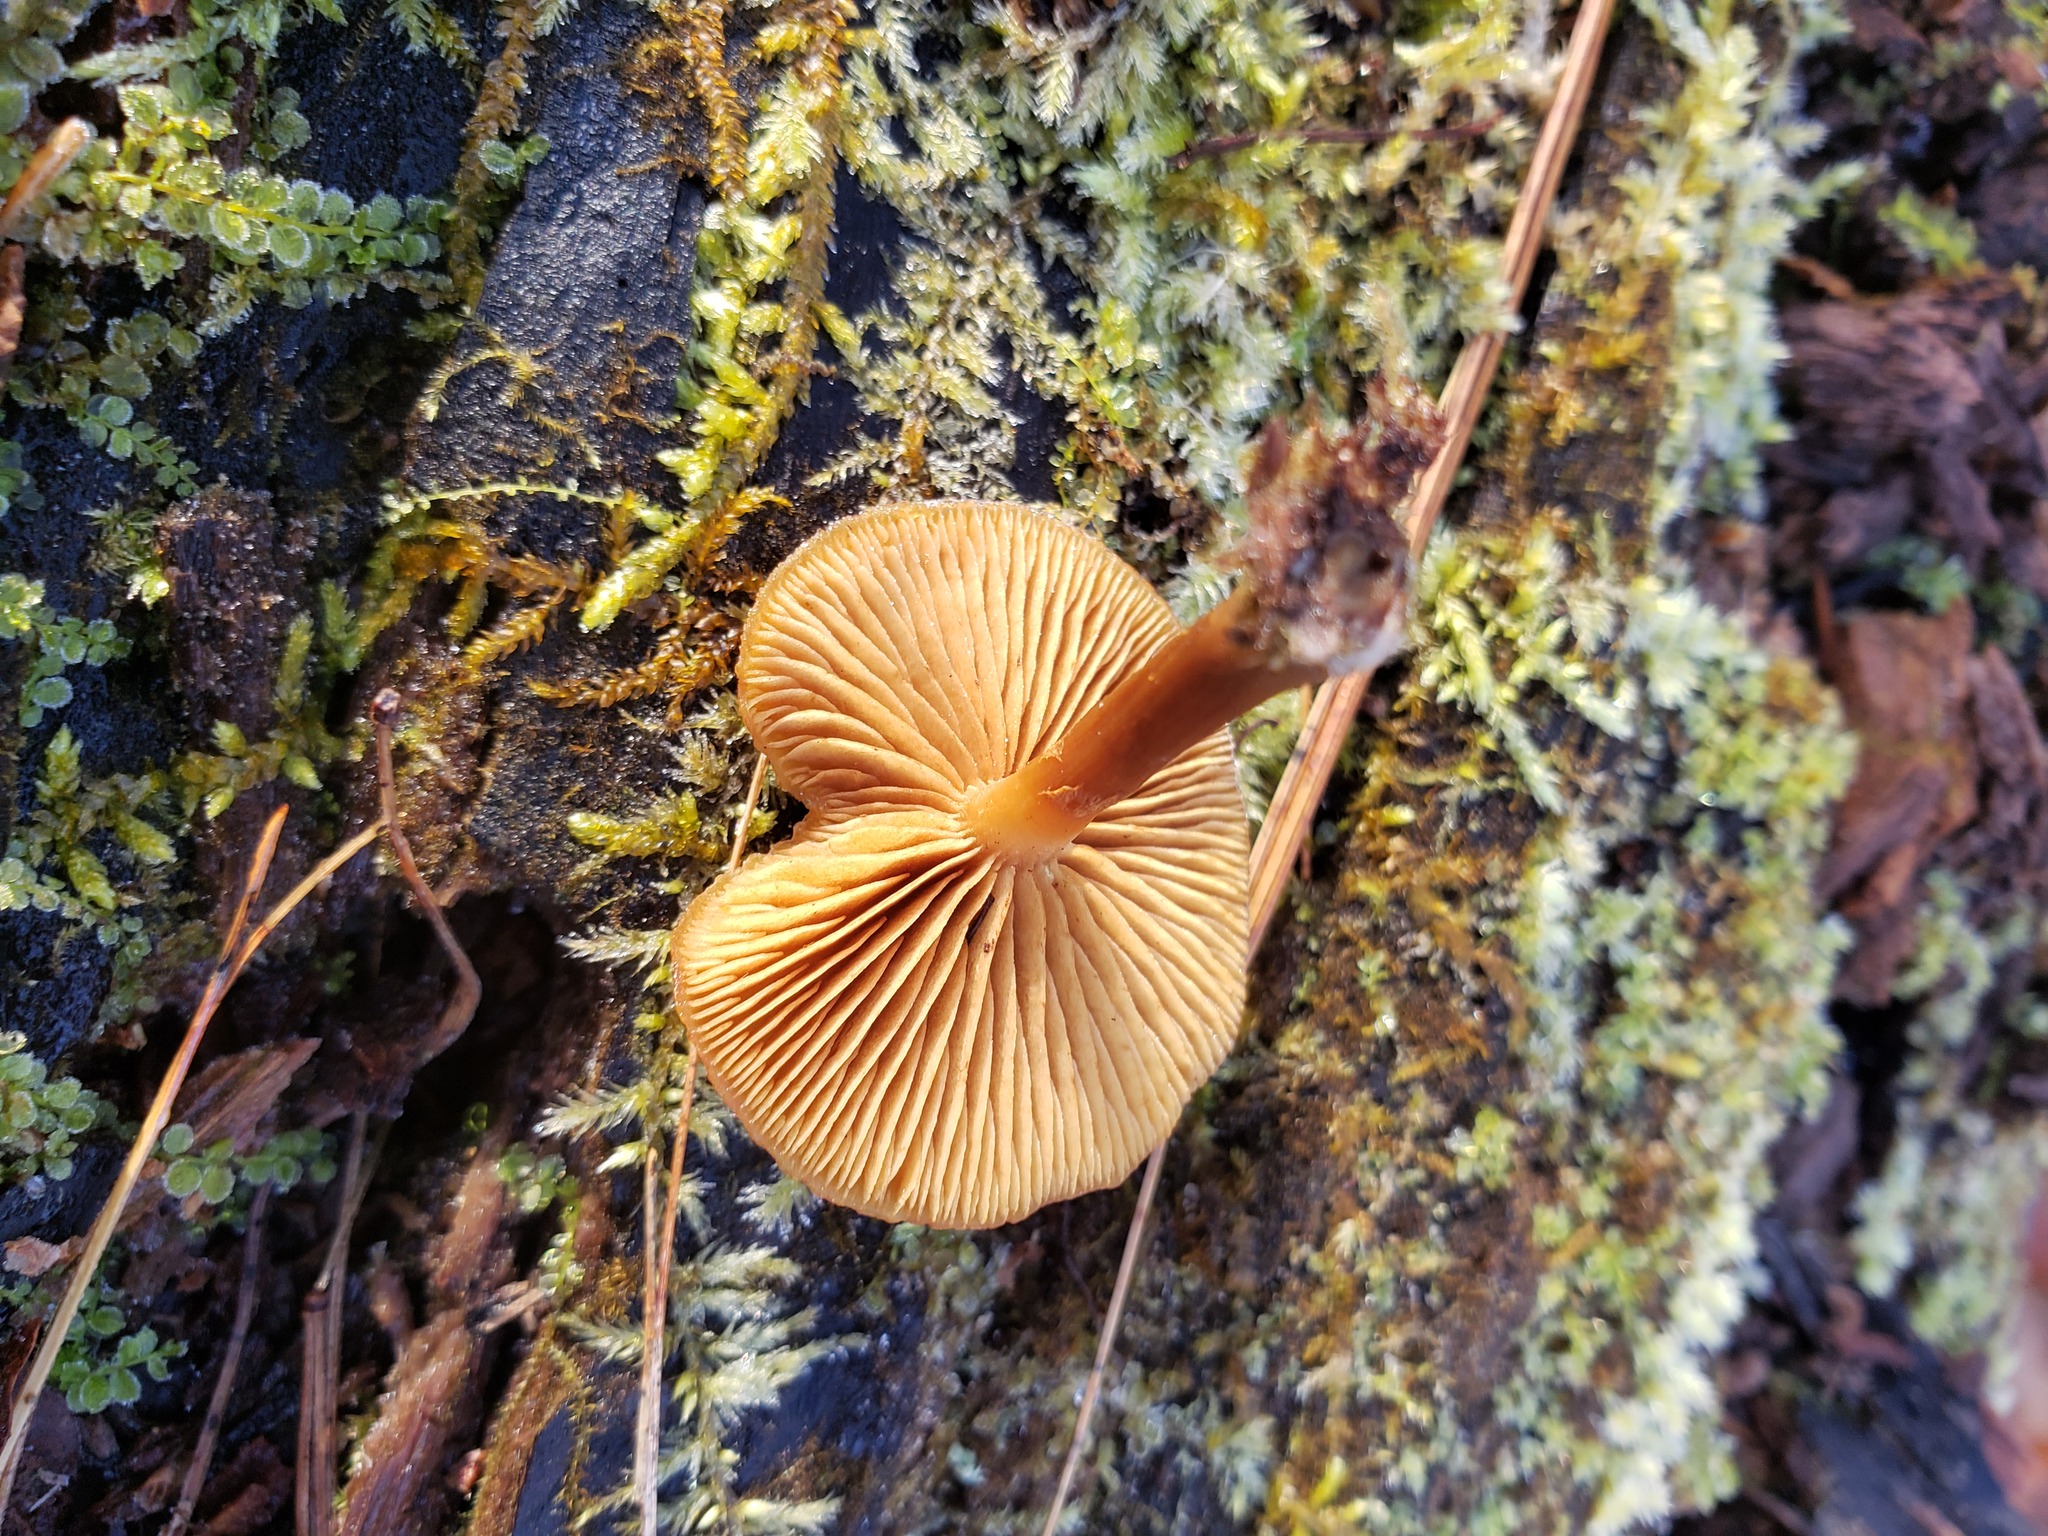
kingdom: Fungi
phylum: Basidiomycota
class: Agaricomycetes
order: Agaricales
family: Hymenogastraceae
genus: Galerina
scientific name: Galerina marginata
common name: Funeral bell
